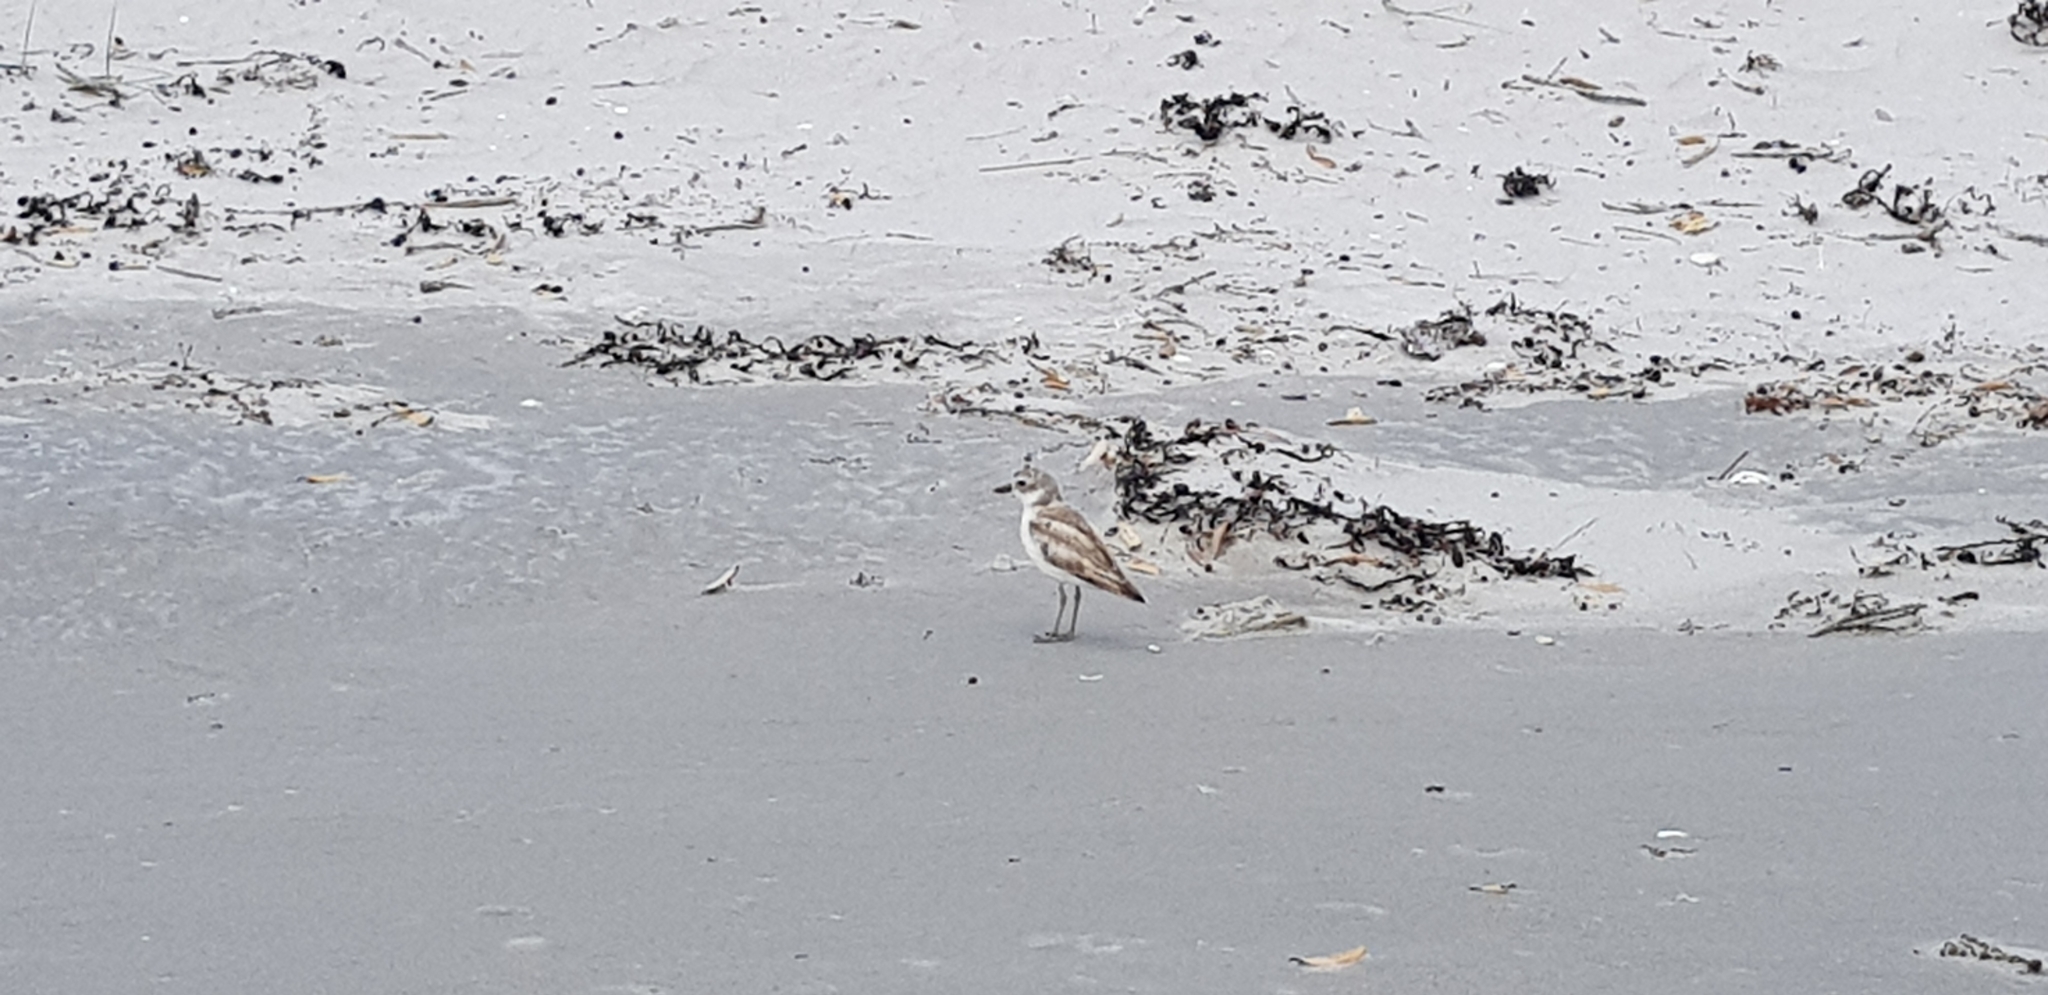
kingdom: Animalia
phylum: Chordata
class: Aves
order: Charadriiformes
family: Charadriidae
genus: Anarhynchus
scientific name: Anarhynchus
